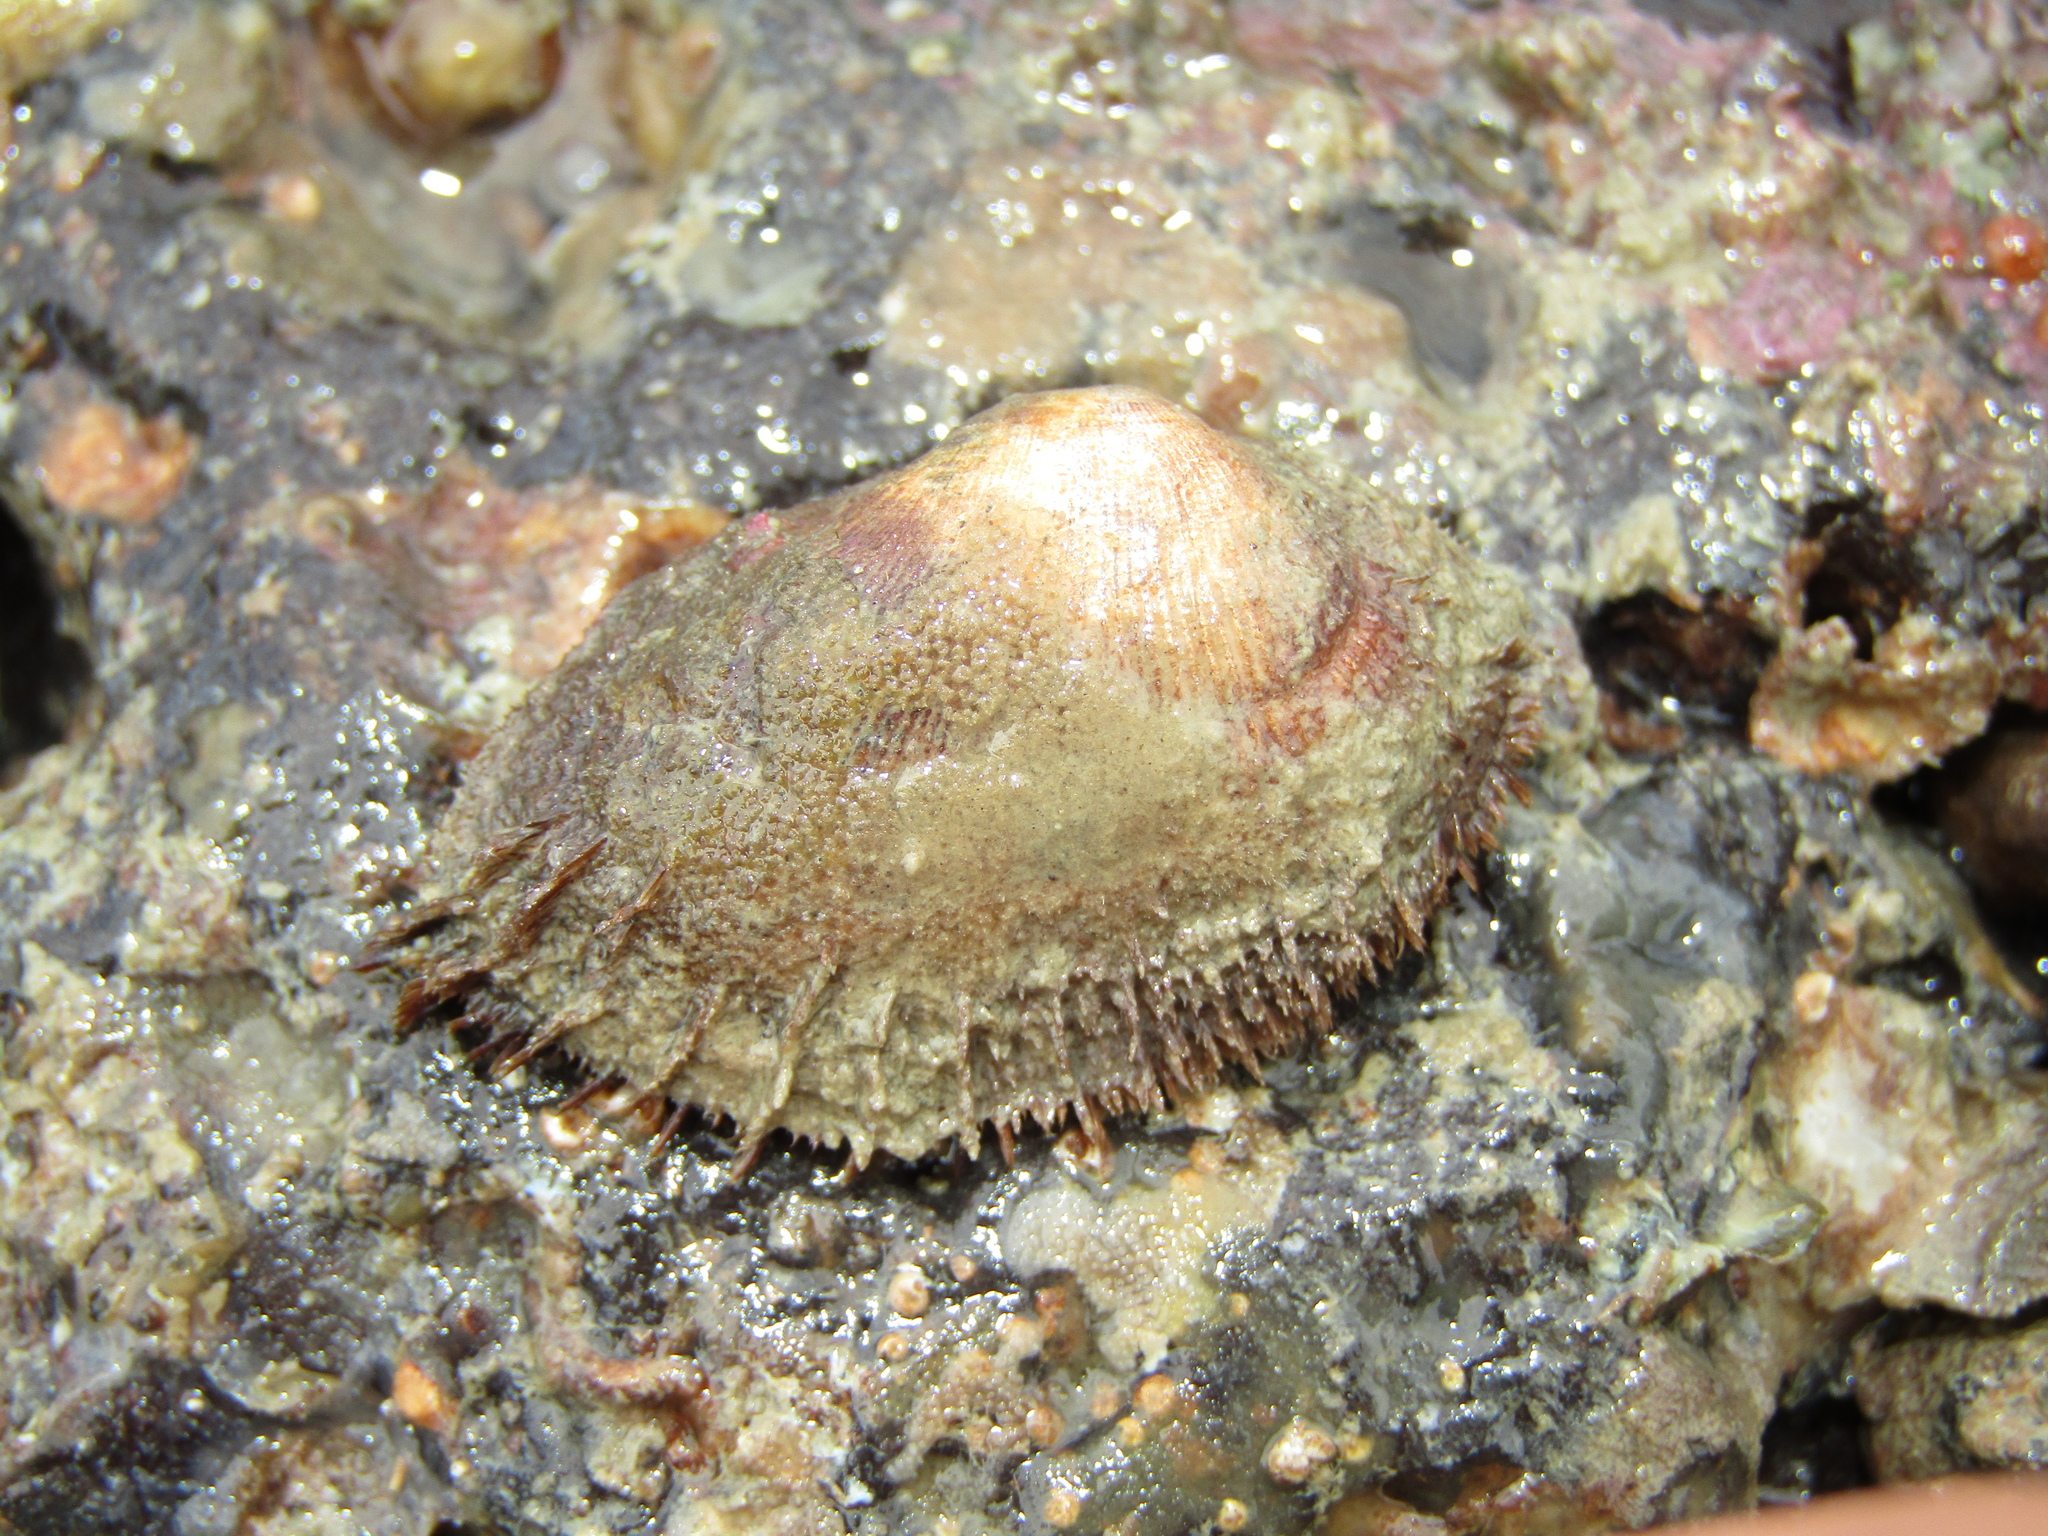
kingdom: Animalia
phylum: Mollusca
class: Bivalvia
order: Arcida
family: Arcidae
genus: Barbatia
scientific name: Barbatia novaezealandiae
